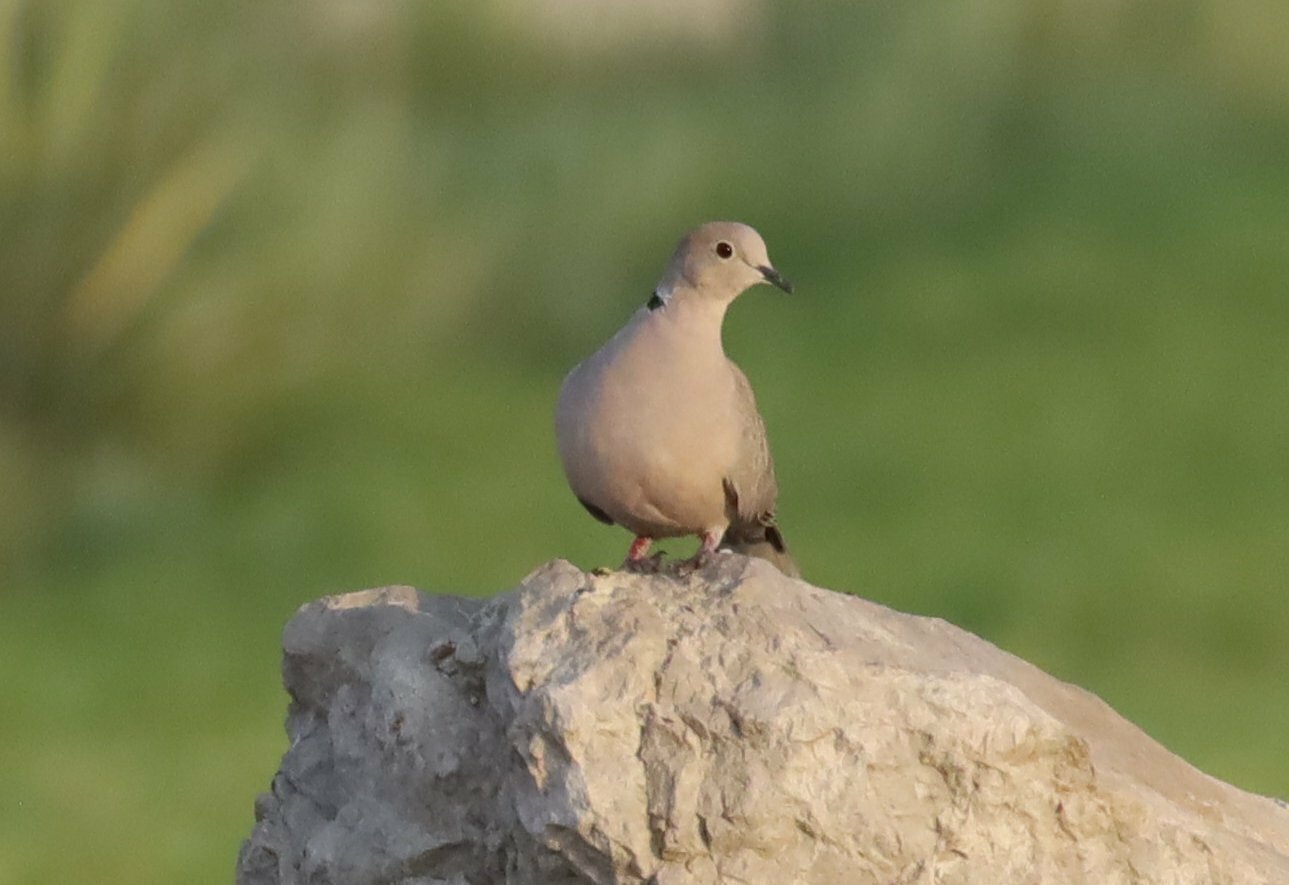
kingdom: Animalia
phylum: Chordata
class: Aves
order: Columbiformes
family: Columbidae
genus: Streptopelia
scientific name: Streptopelia decaocto
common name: Eurasian collared dove
